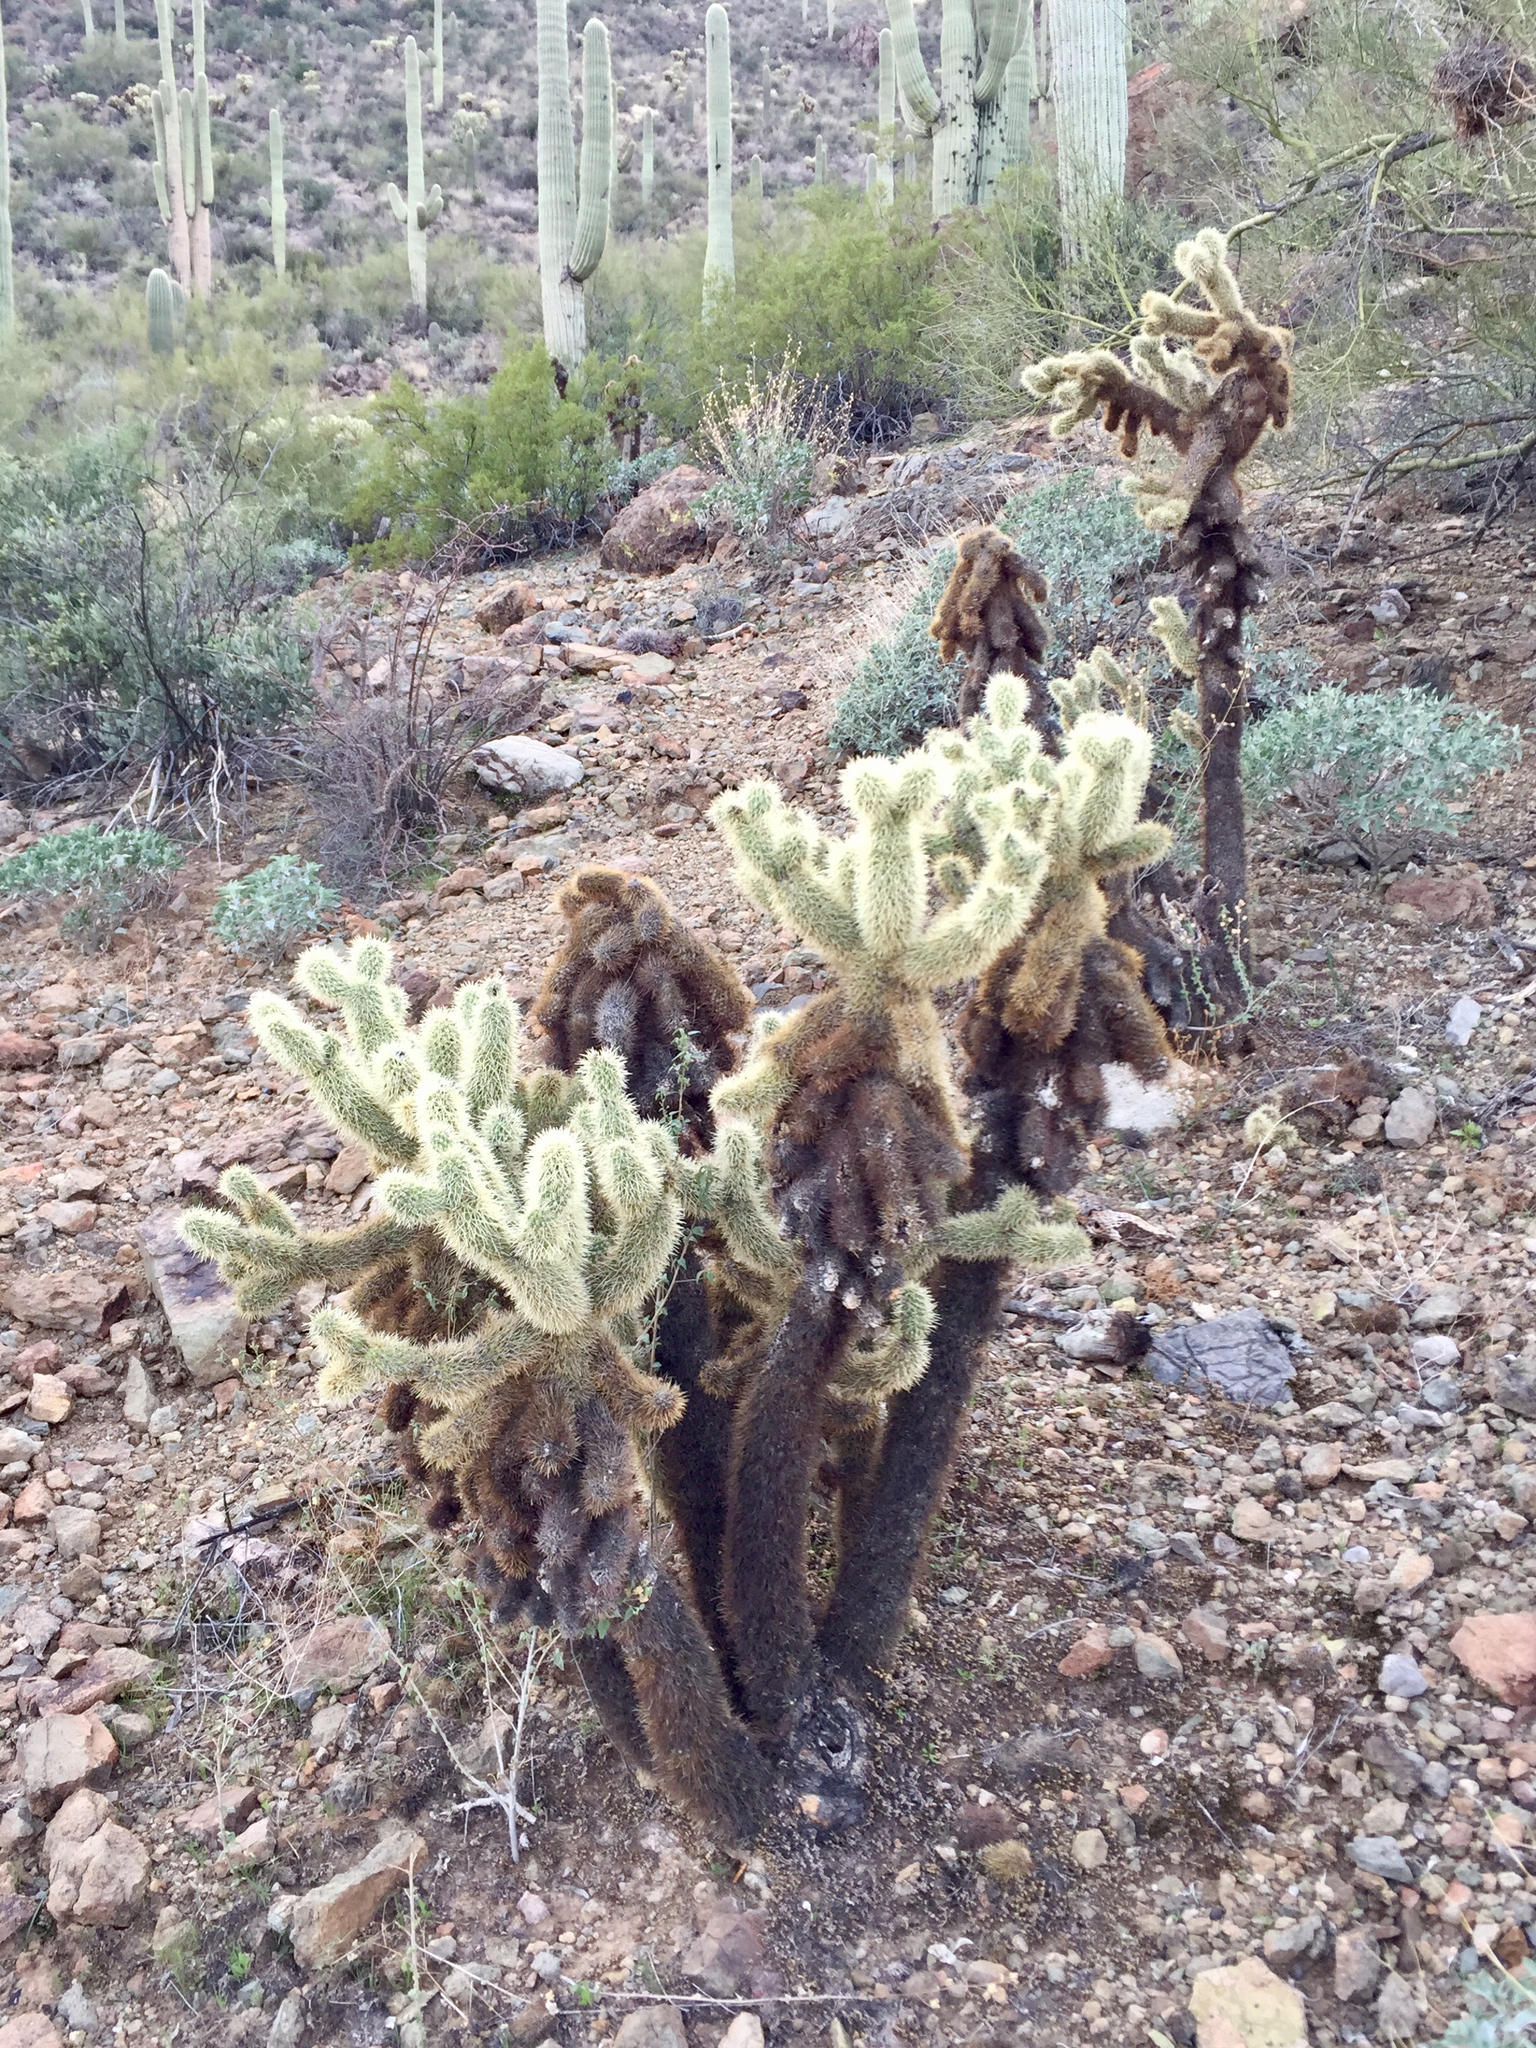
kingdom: Plantae
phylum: Tracheophyta
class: Magnoliopsida
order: Caryophyllales
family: Cactaceae
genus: Cylindropuntia
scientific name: Cylindropuntia fosbergii
